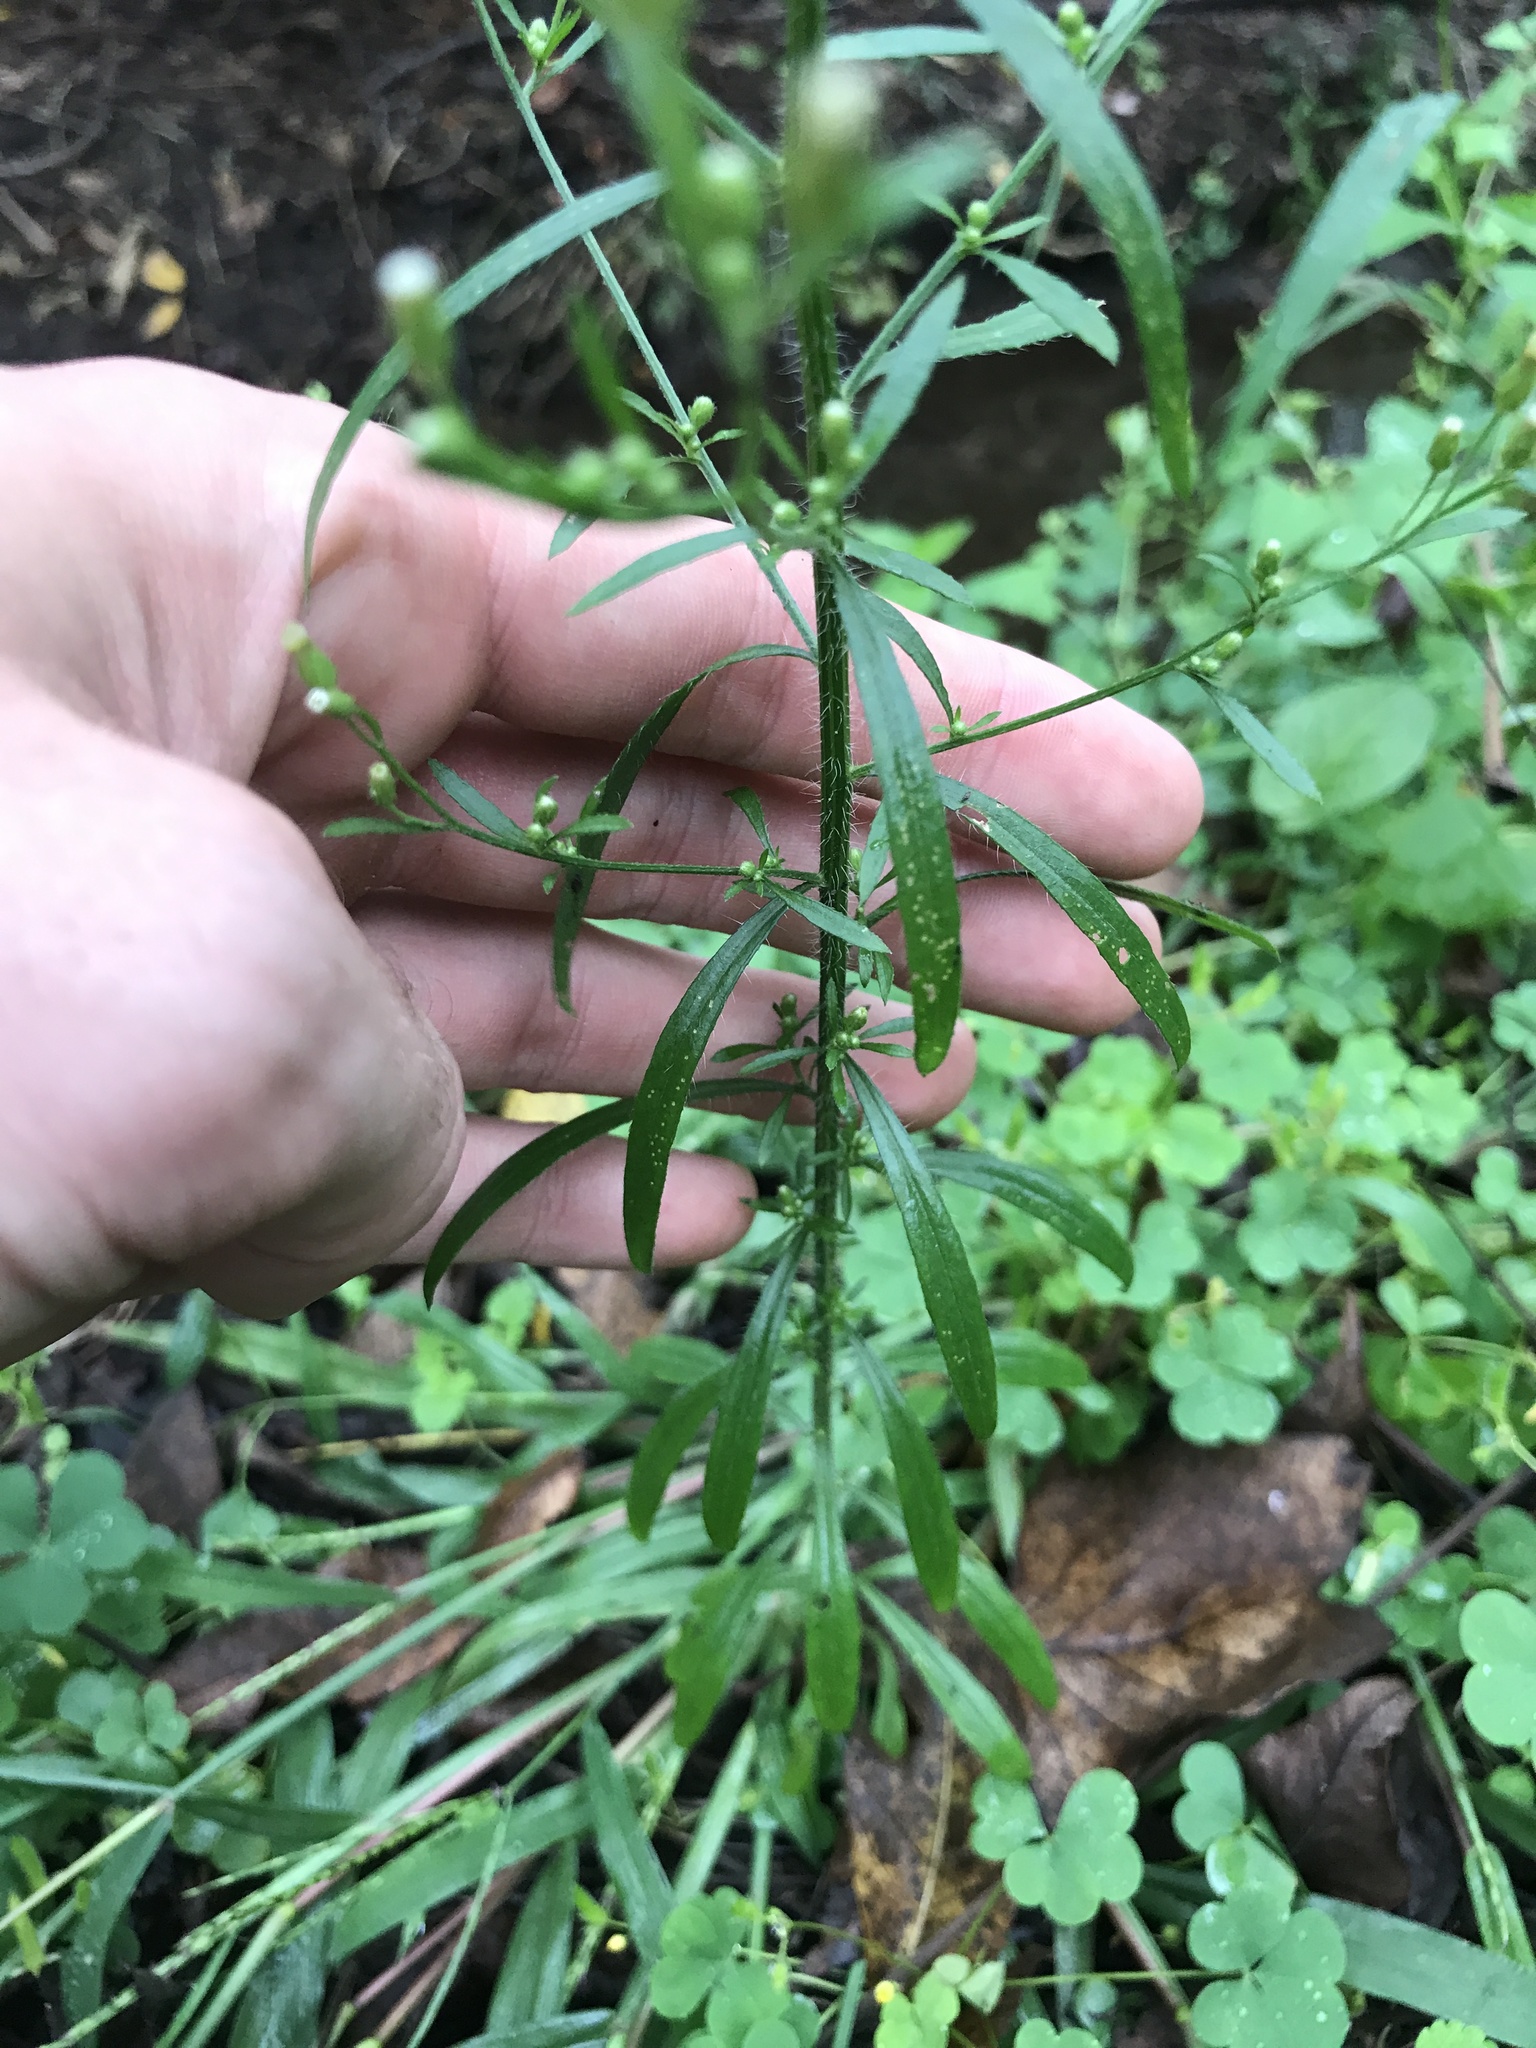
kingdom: Plantae
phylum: Tracheophyta
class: Magnoliopsida
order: Asterales
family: Asteraceae
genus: Erigeron
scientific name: Erigeron canadensis
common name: Canadian fleabane
